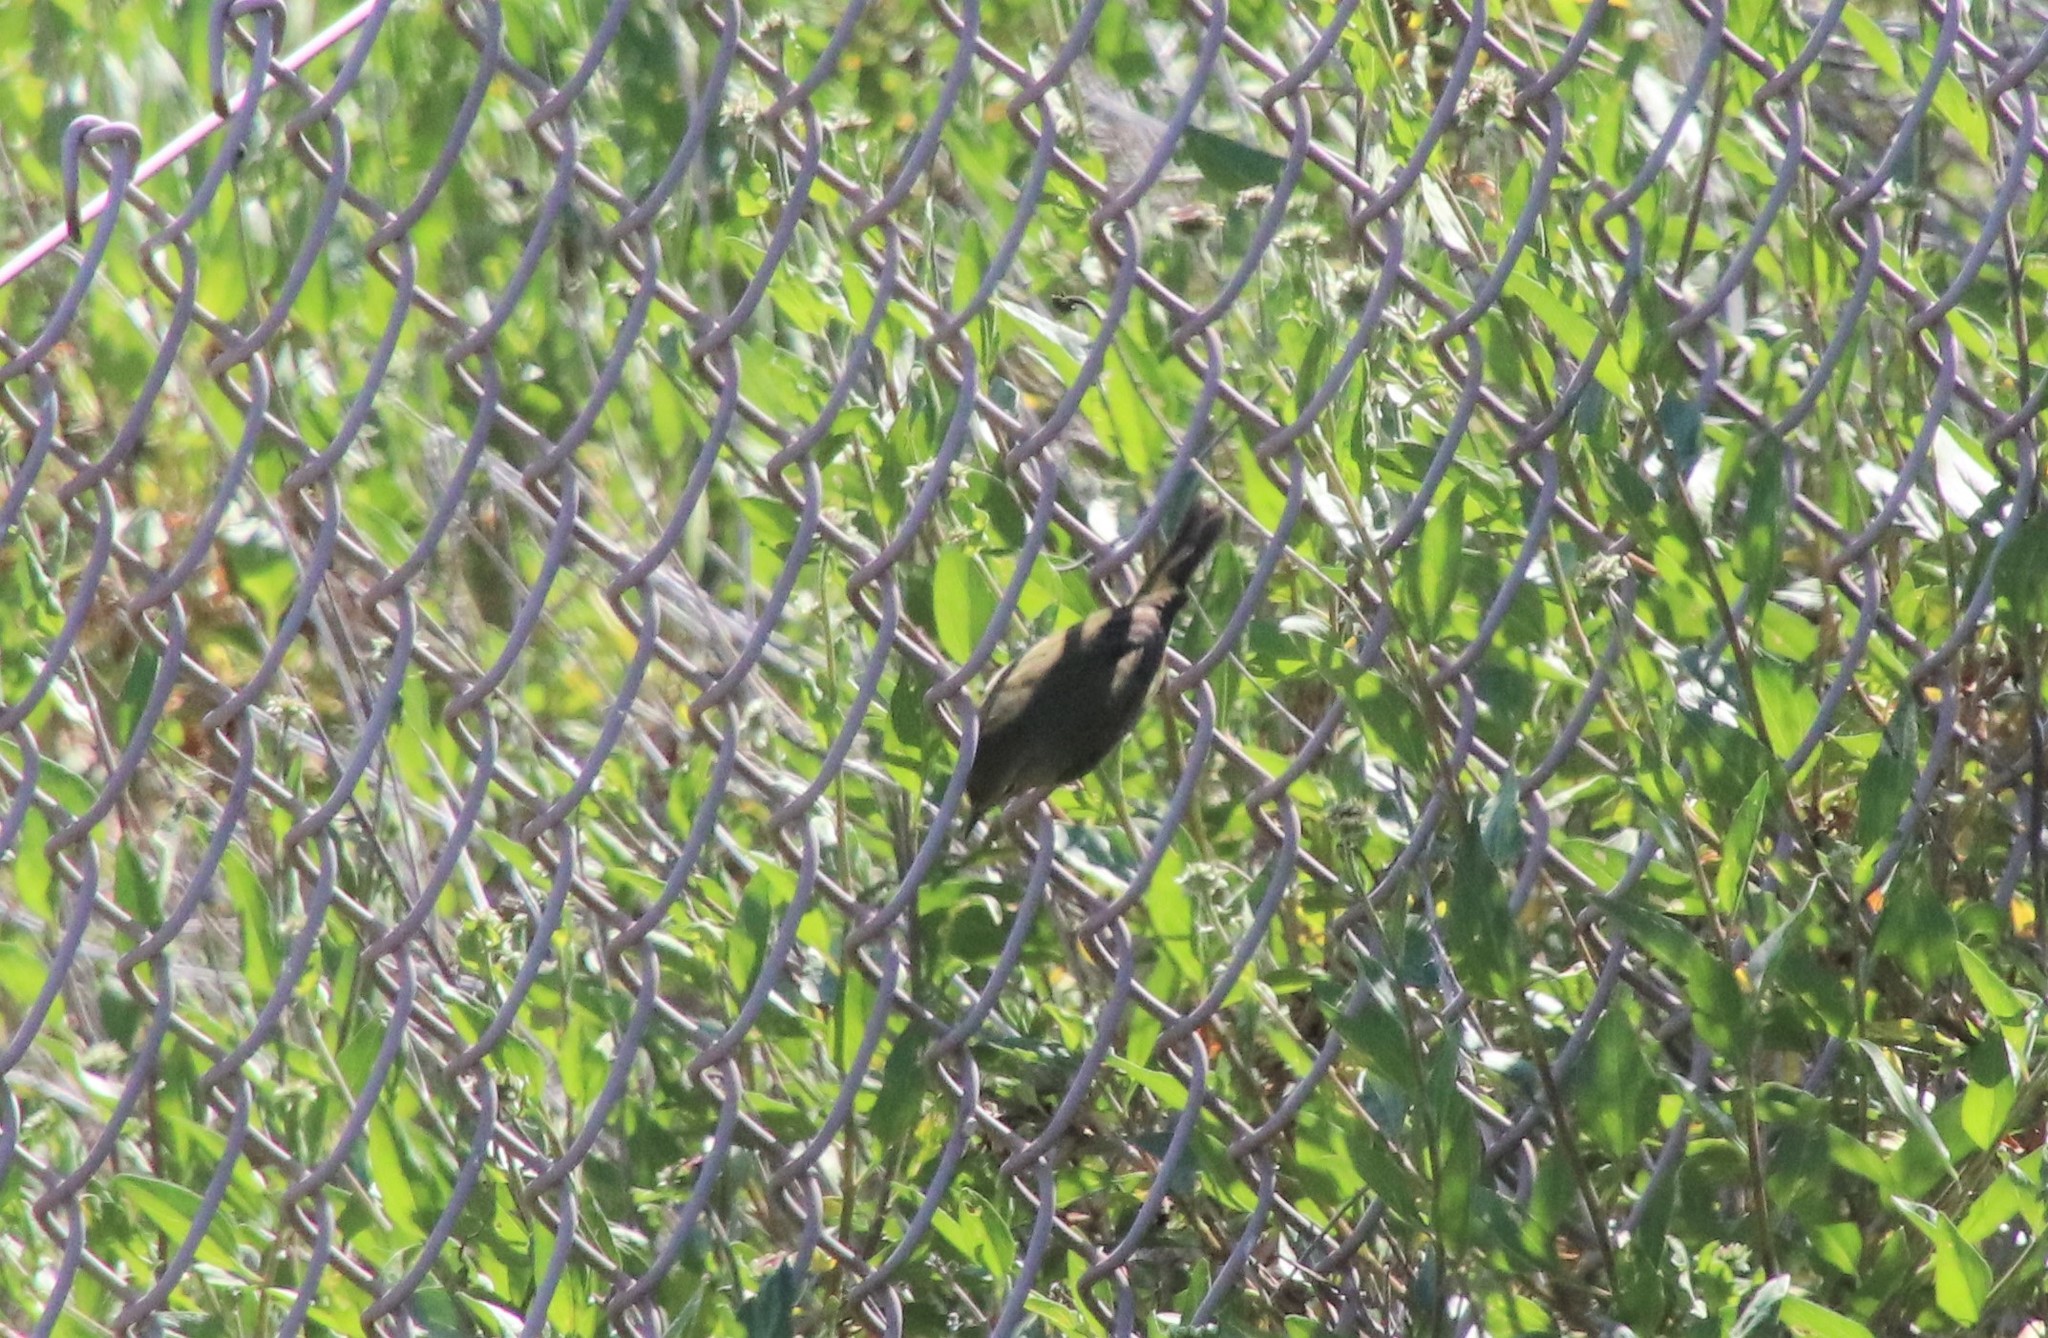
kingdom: Animalia
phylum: Chordata
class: Aves
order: Passeriformes
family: Parulidae
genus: Leiothlypis
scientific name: Leiothlypis celata
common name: Orange-crowned warbler
